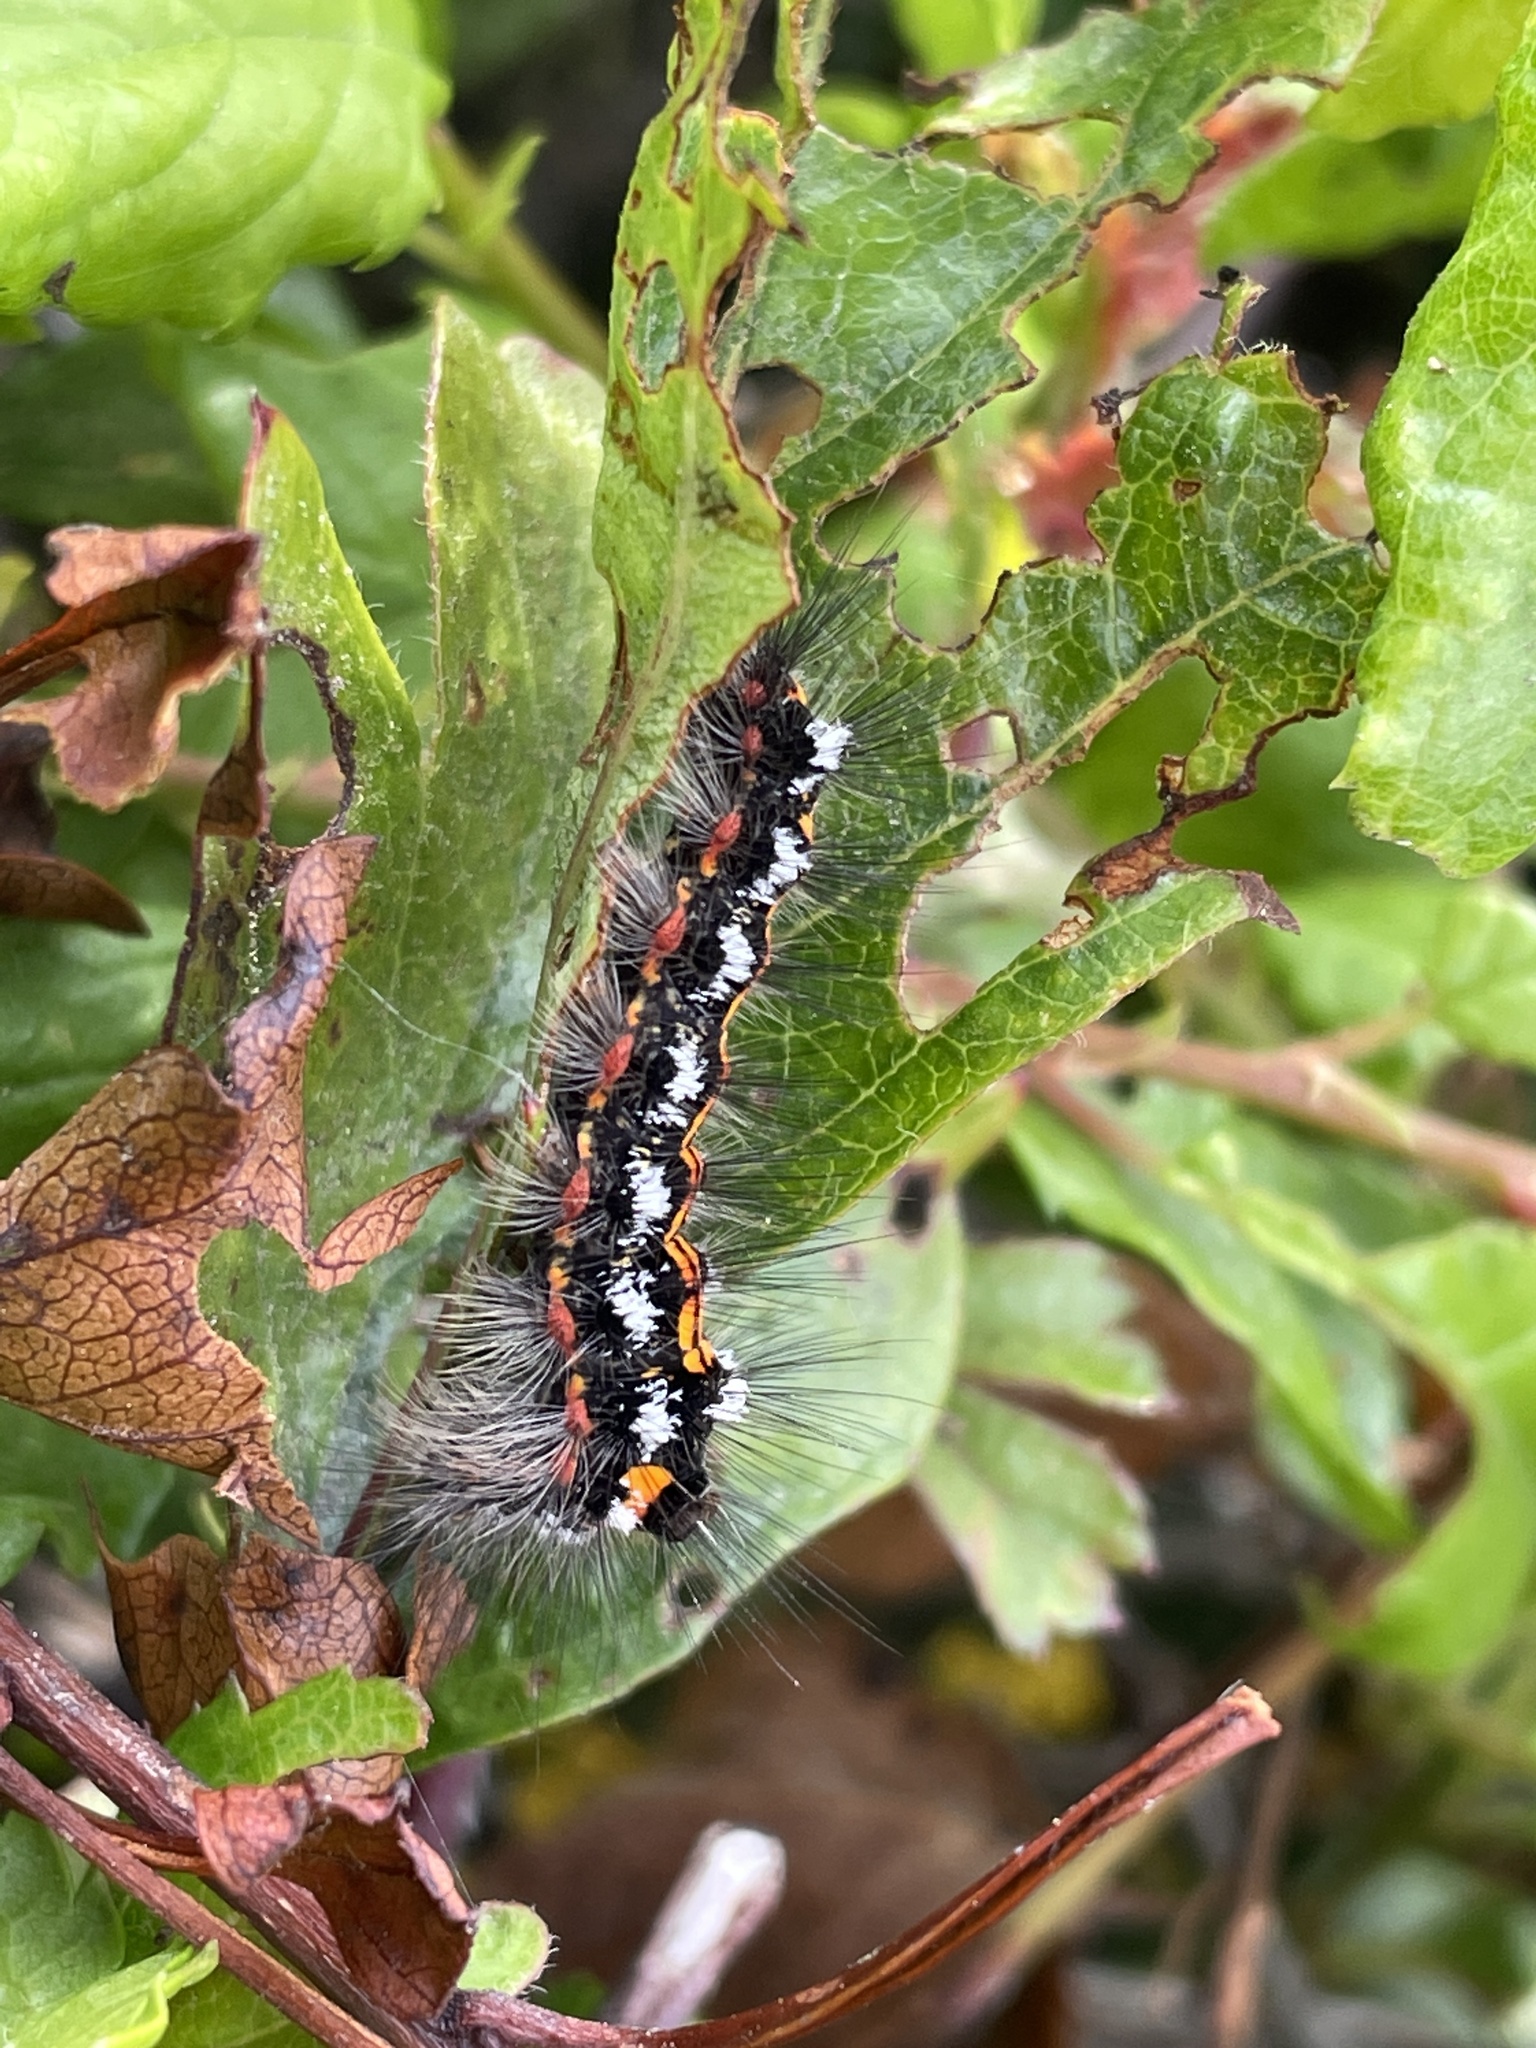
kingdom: Animalia
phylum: Arthropoda
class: Insecta
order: Lepidoptera
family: Erebidae
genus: Sphrageidus
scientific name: Sphrageidus similis
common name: Yellow-tail
